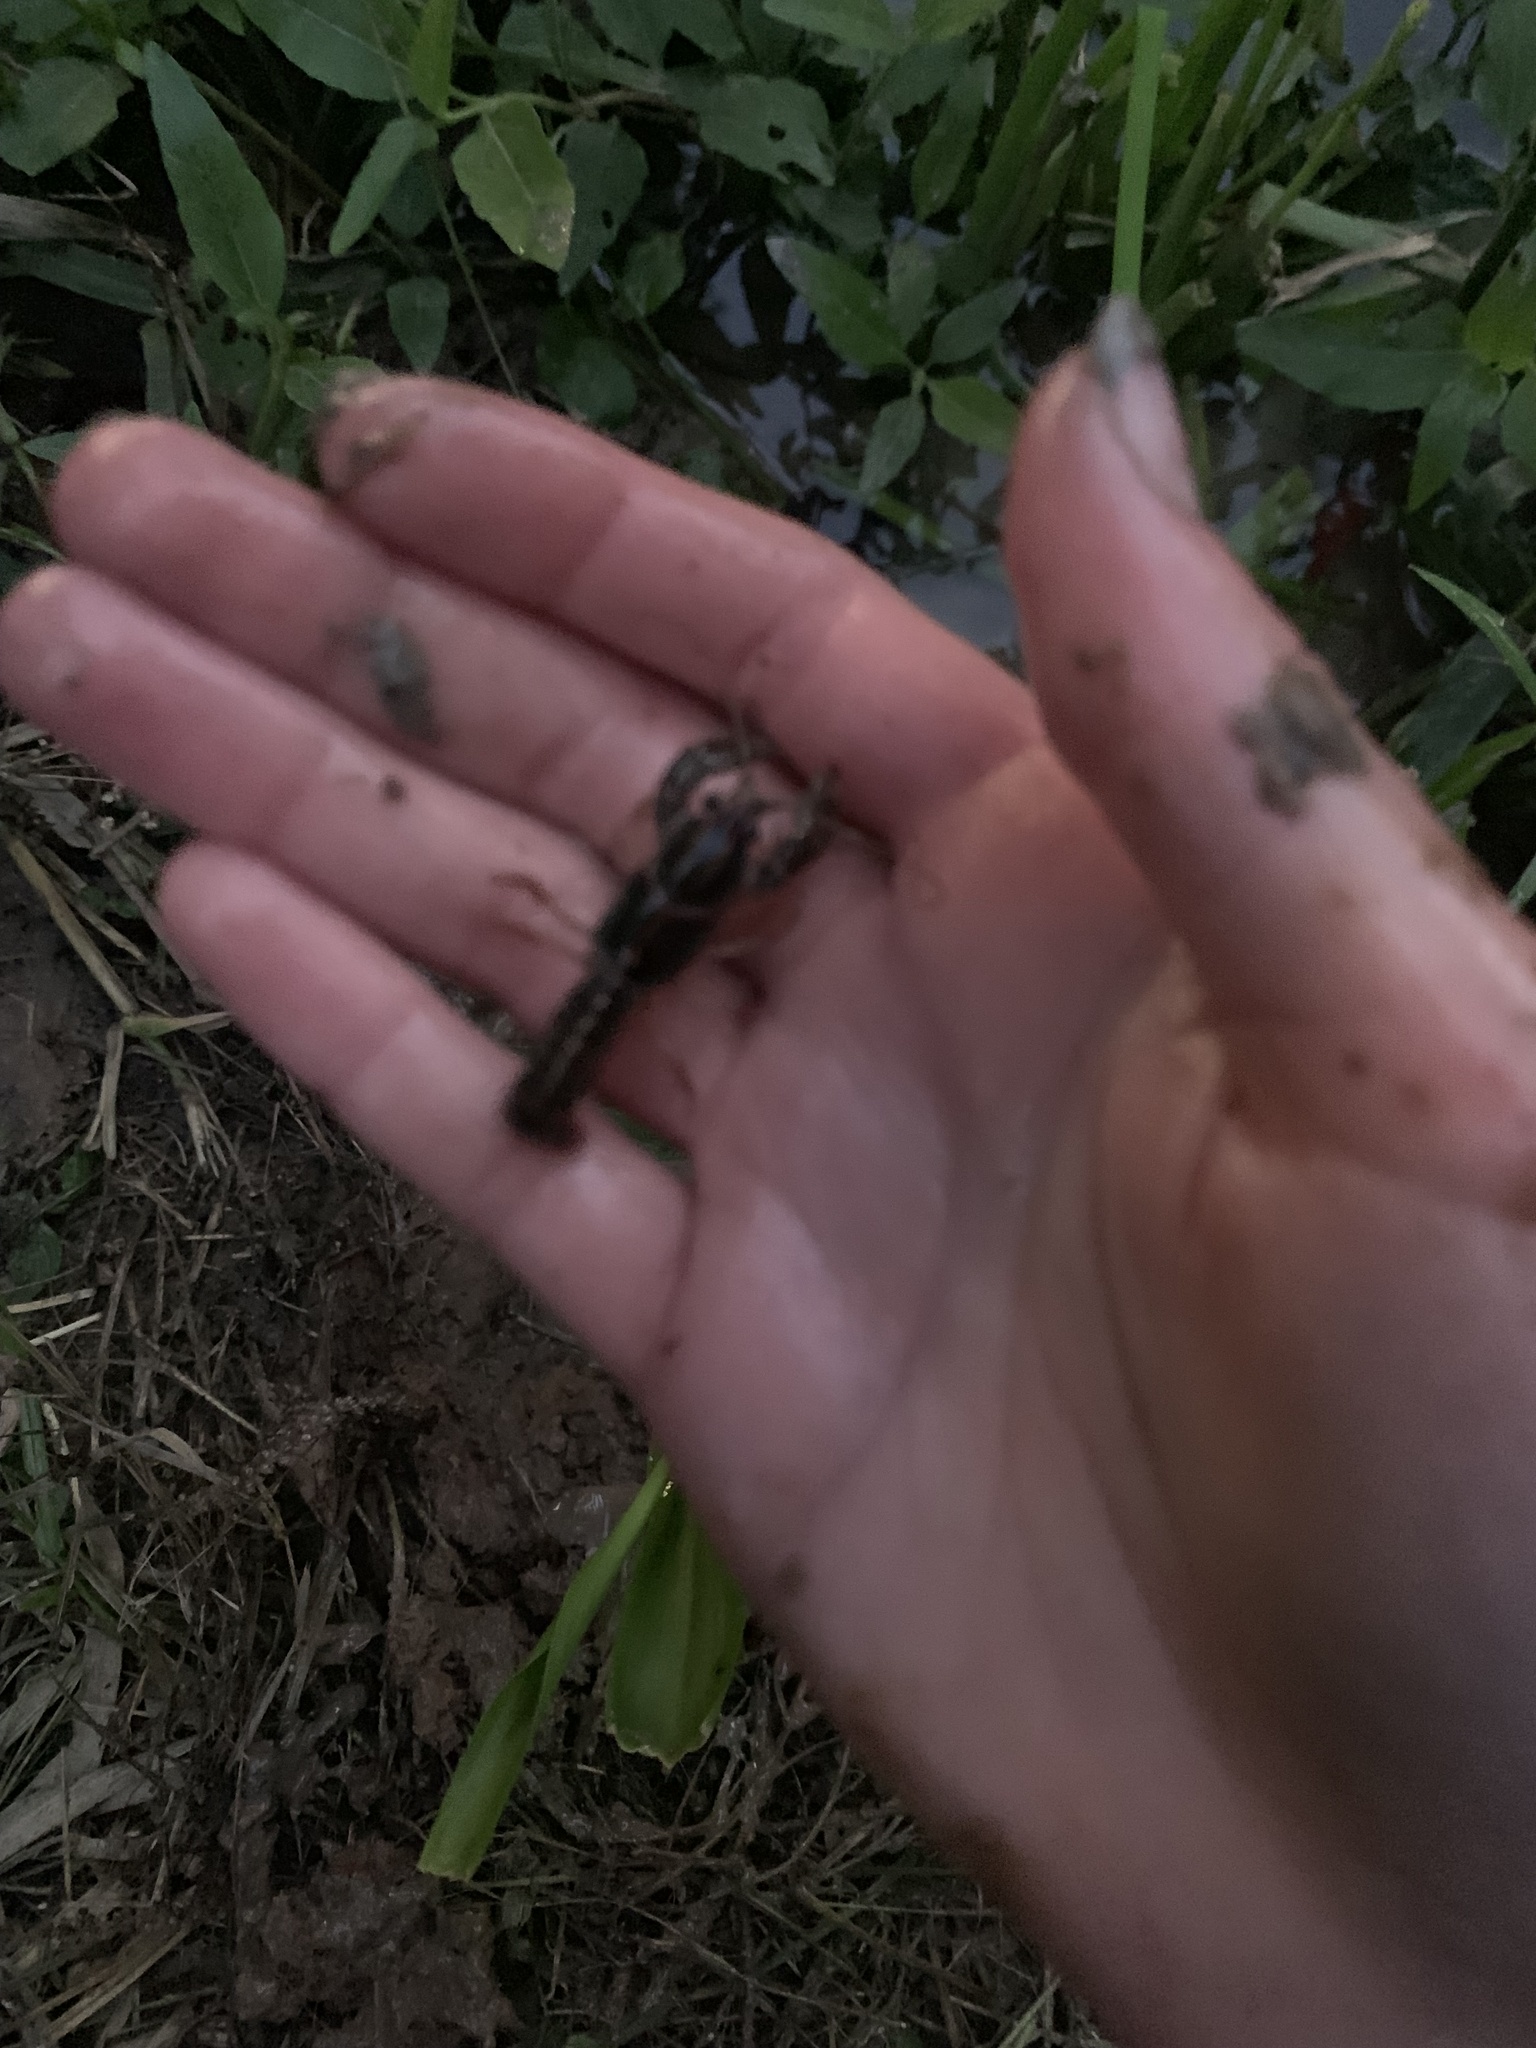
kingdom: Animalia
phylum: Arthropoda
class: Malacostraca
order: Decapoda
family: Cambaridae
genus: Lacunicambarus
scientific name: Lacunicambarus ludovicianus
